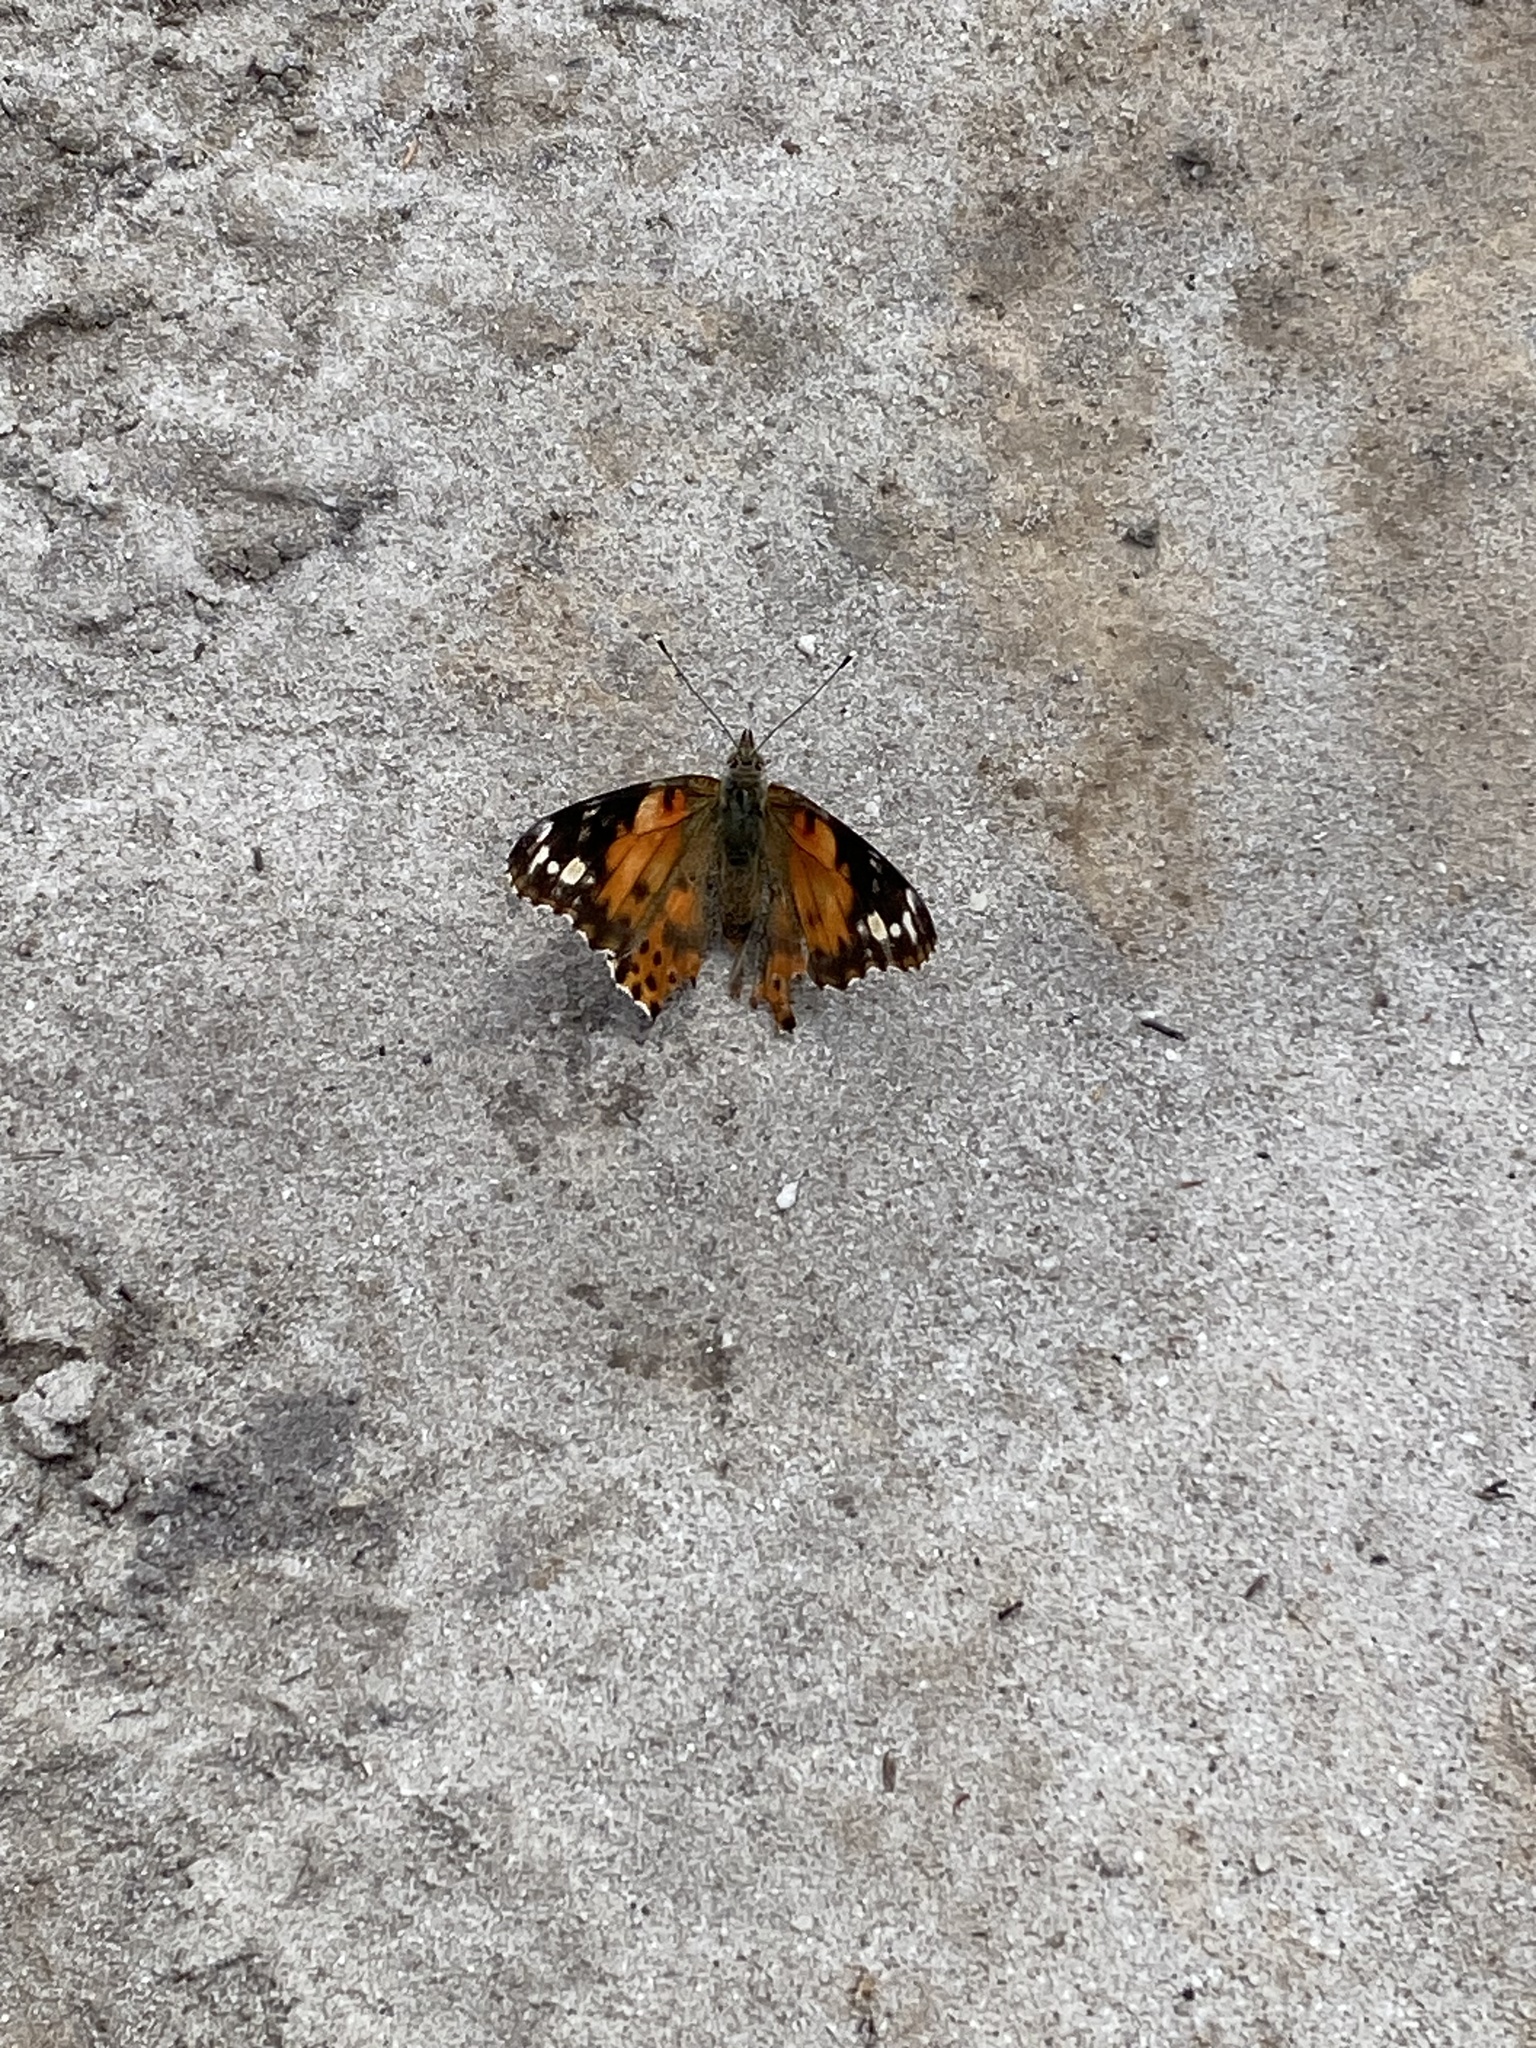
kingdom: Animalia
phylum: Arthropoda
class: Insecta
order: Lepidoptera
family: Nymphalidae
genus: Vanessa
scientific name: Vanessa cardui
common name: Painted lady
